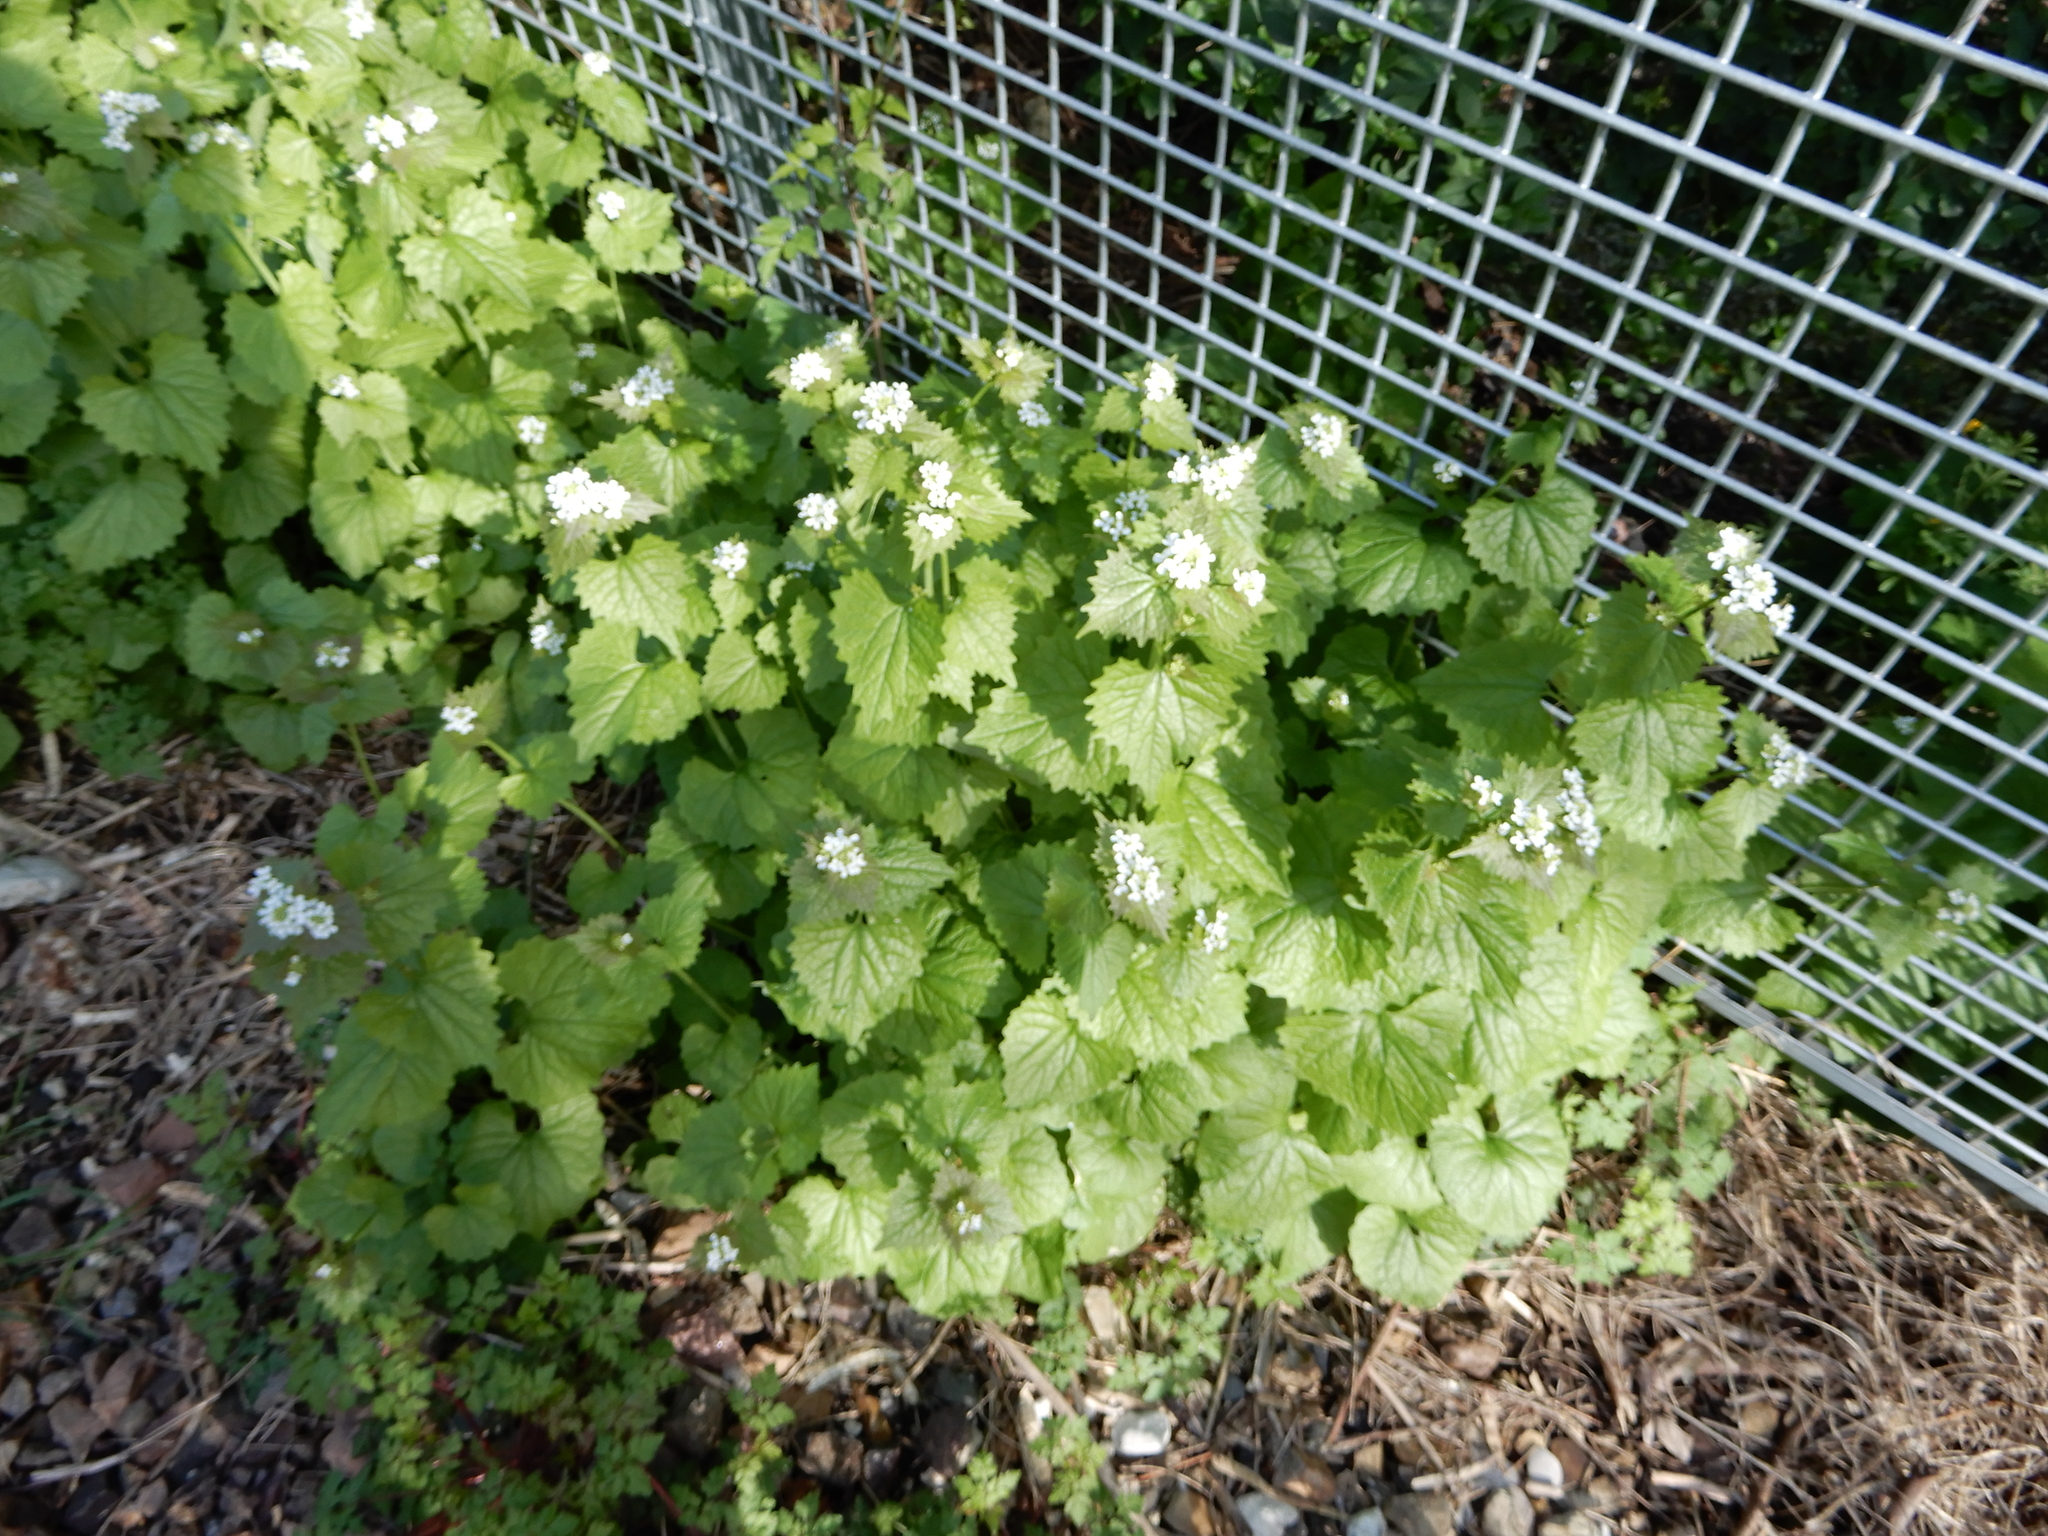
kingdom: Plantae
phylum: Tracheophyta
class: Magnoliopsida
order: Brassicales
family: Brassicaceae
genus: Alliaria
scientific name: Alliaria petiolata
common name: Garlic mustard
